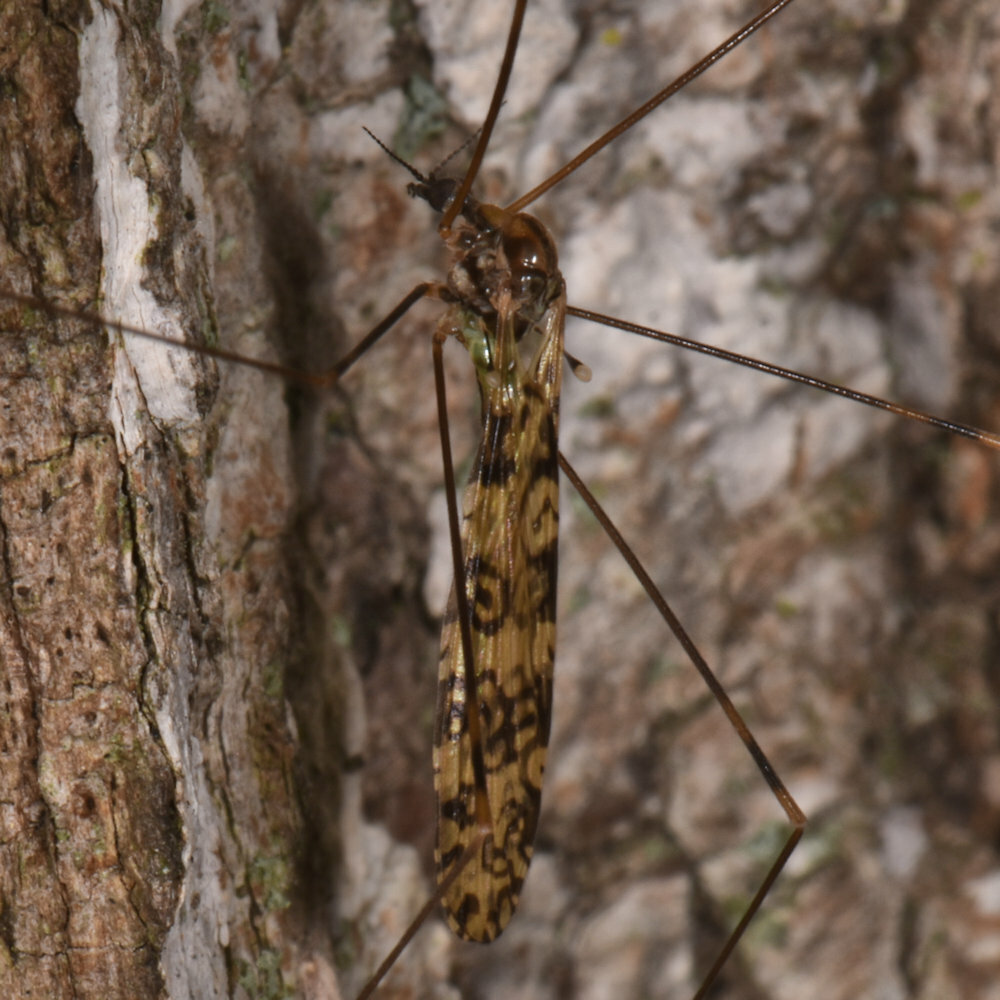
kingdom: Animalia
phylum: Arthropoda
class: Insecta
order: Diptera
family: Limoniidae
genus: Limonia
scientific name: Limonia annulata
